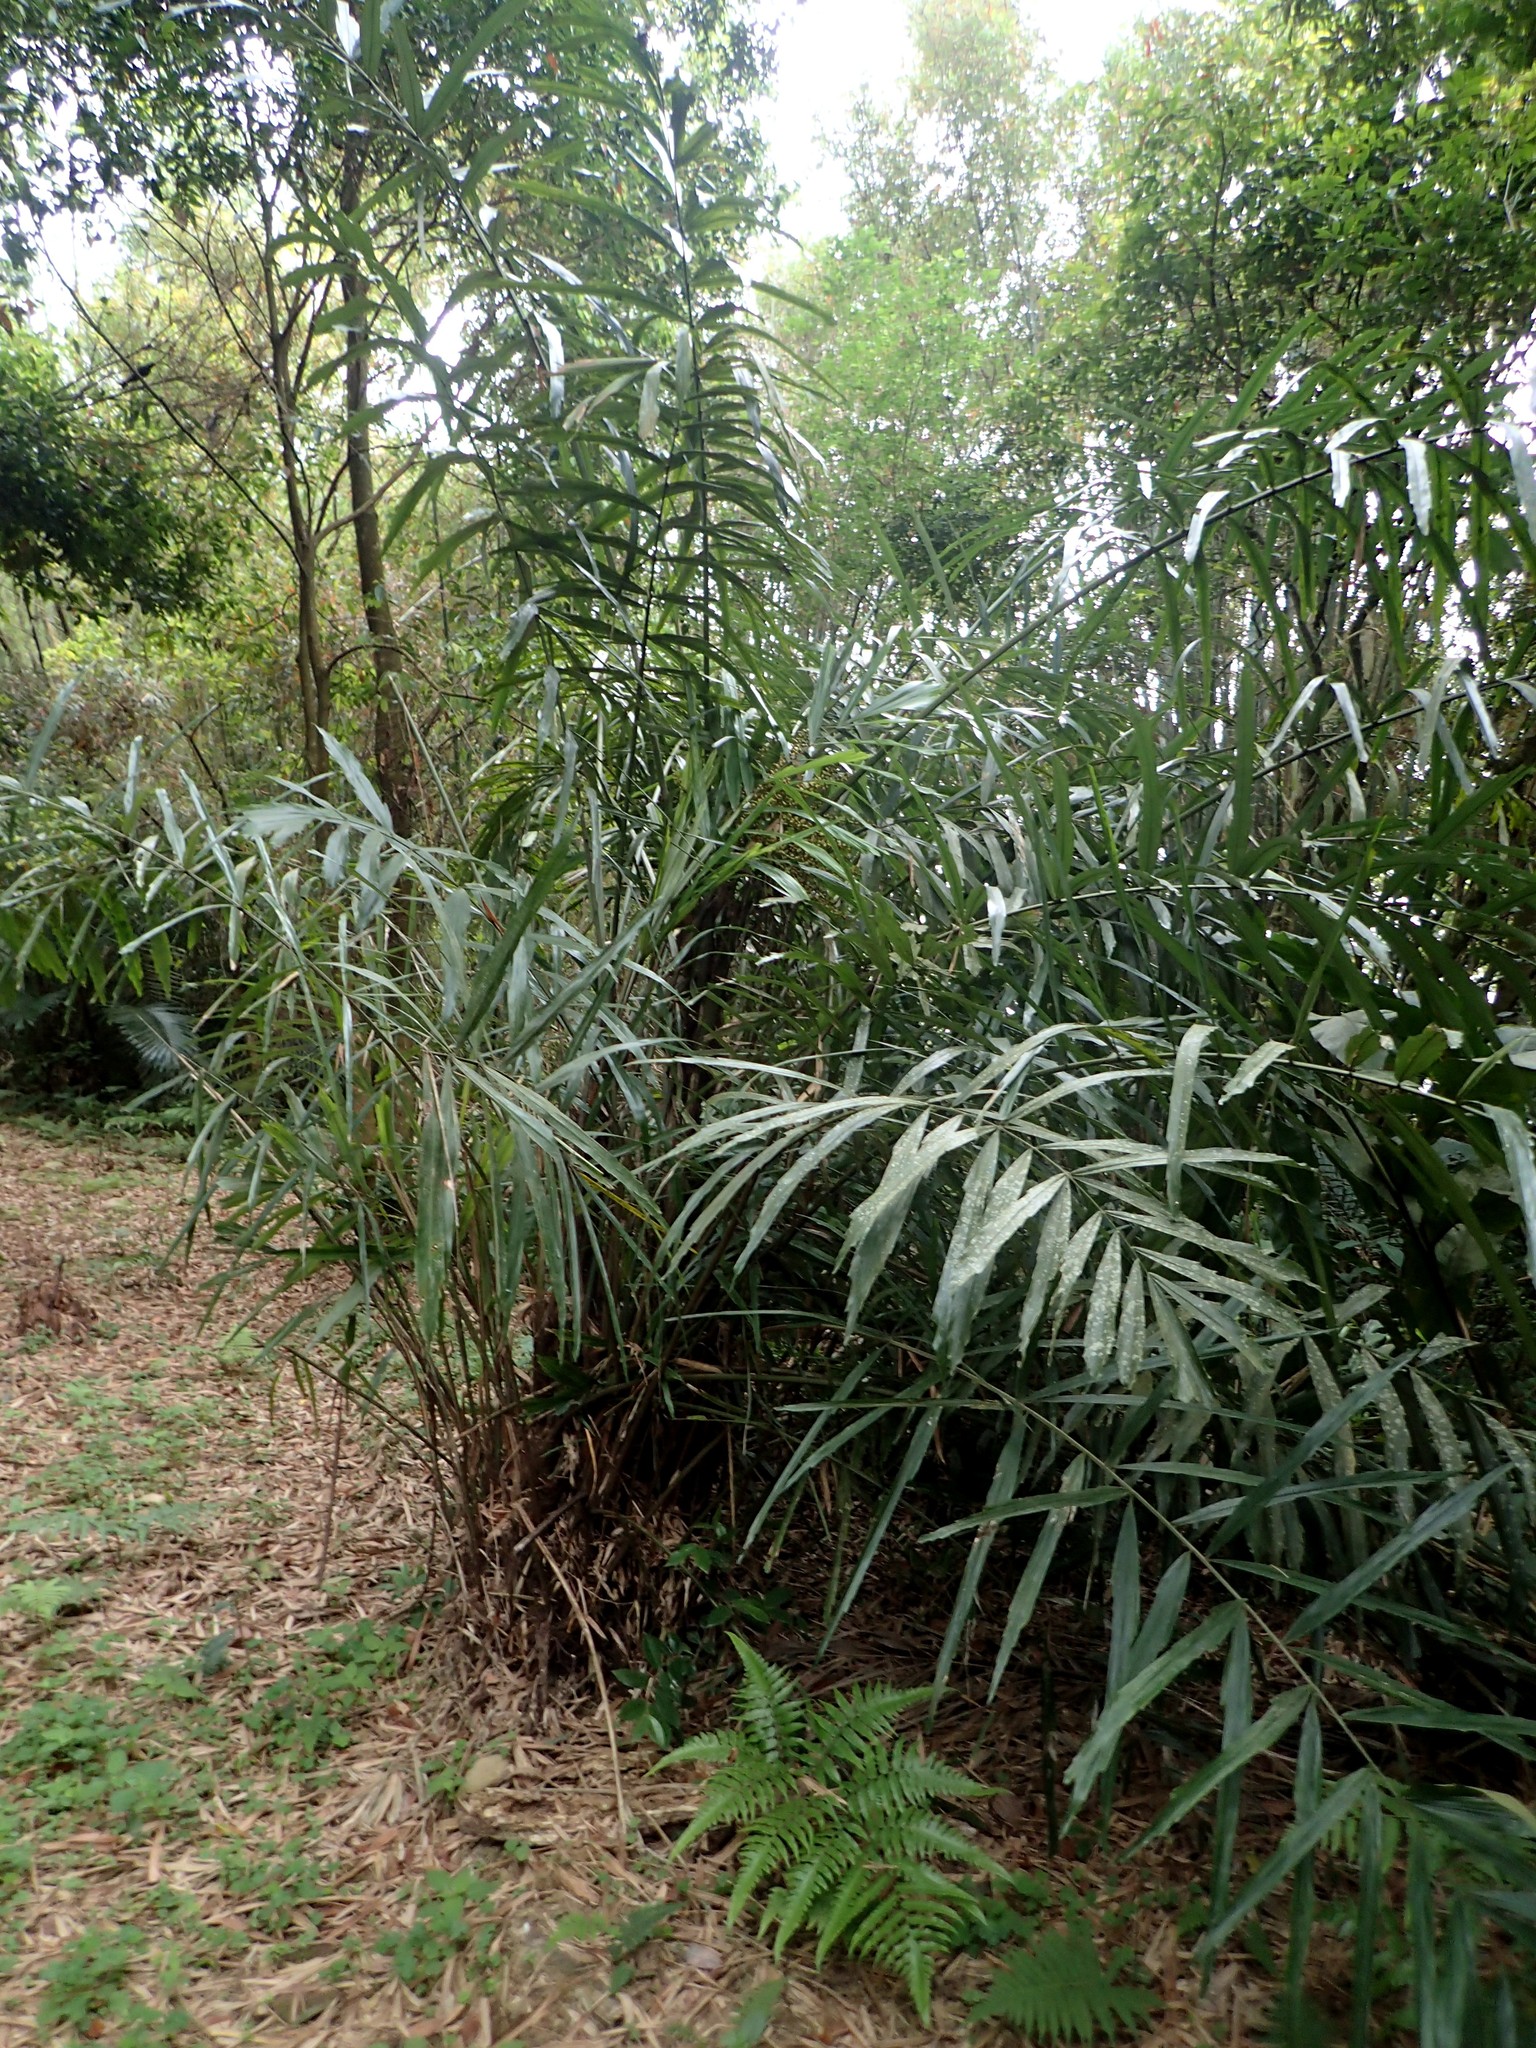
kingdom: Plantae
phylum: Tracheophyta
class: Liliopsida
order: Arecales
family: Arecaceae
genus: Arenga
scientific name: Arenga engleri
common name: Formosan sugar palm
